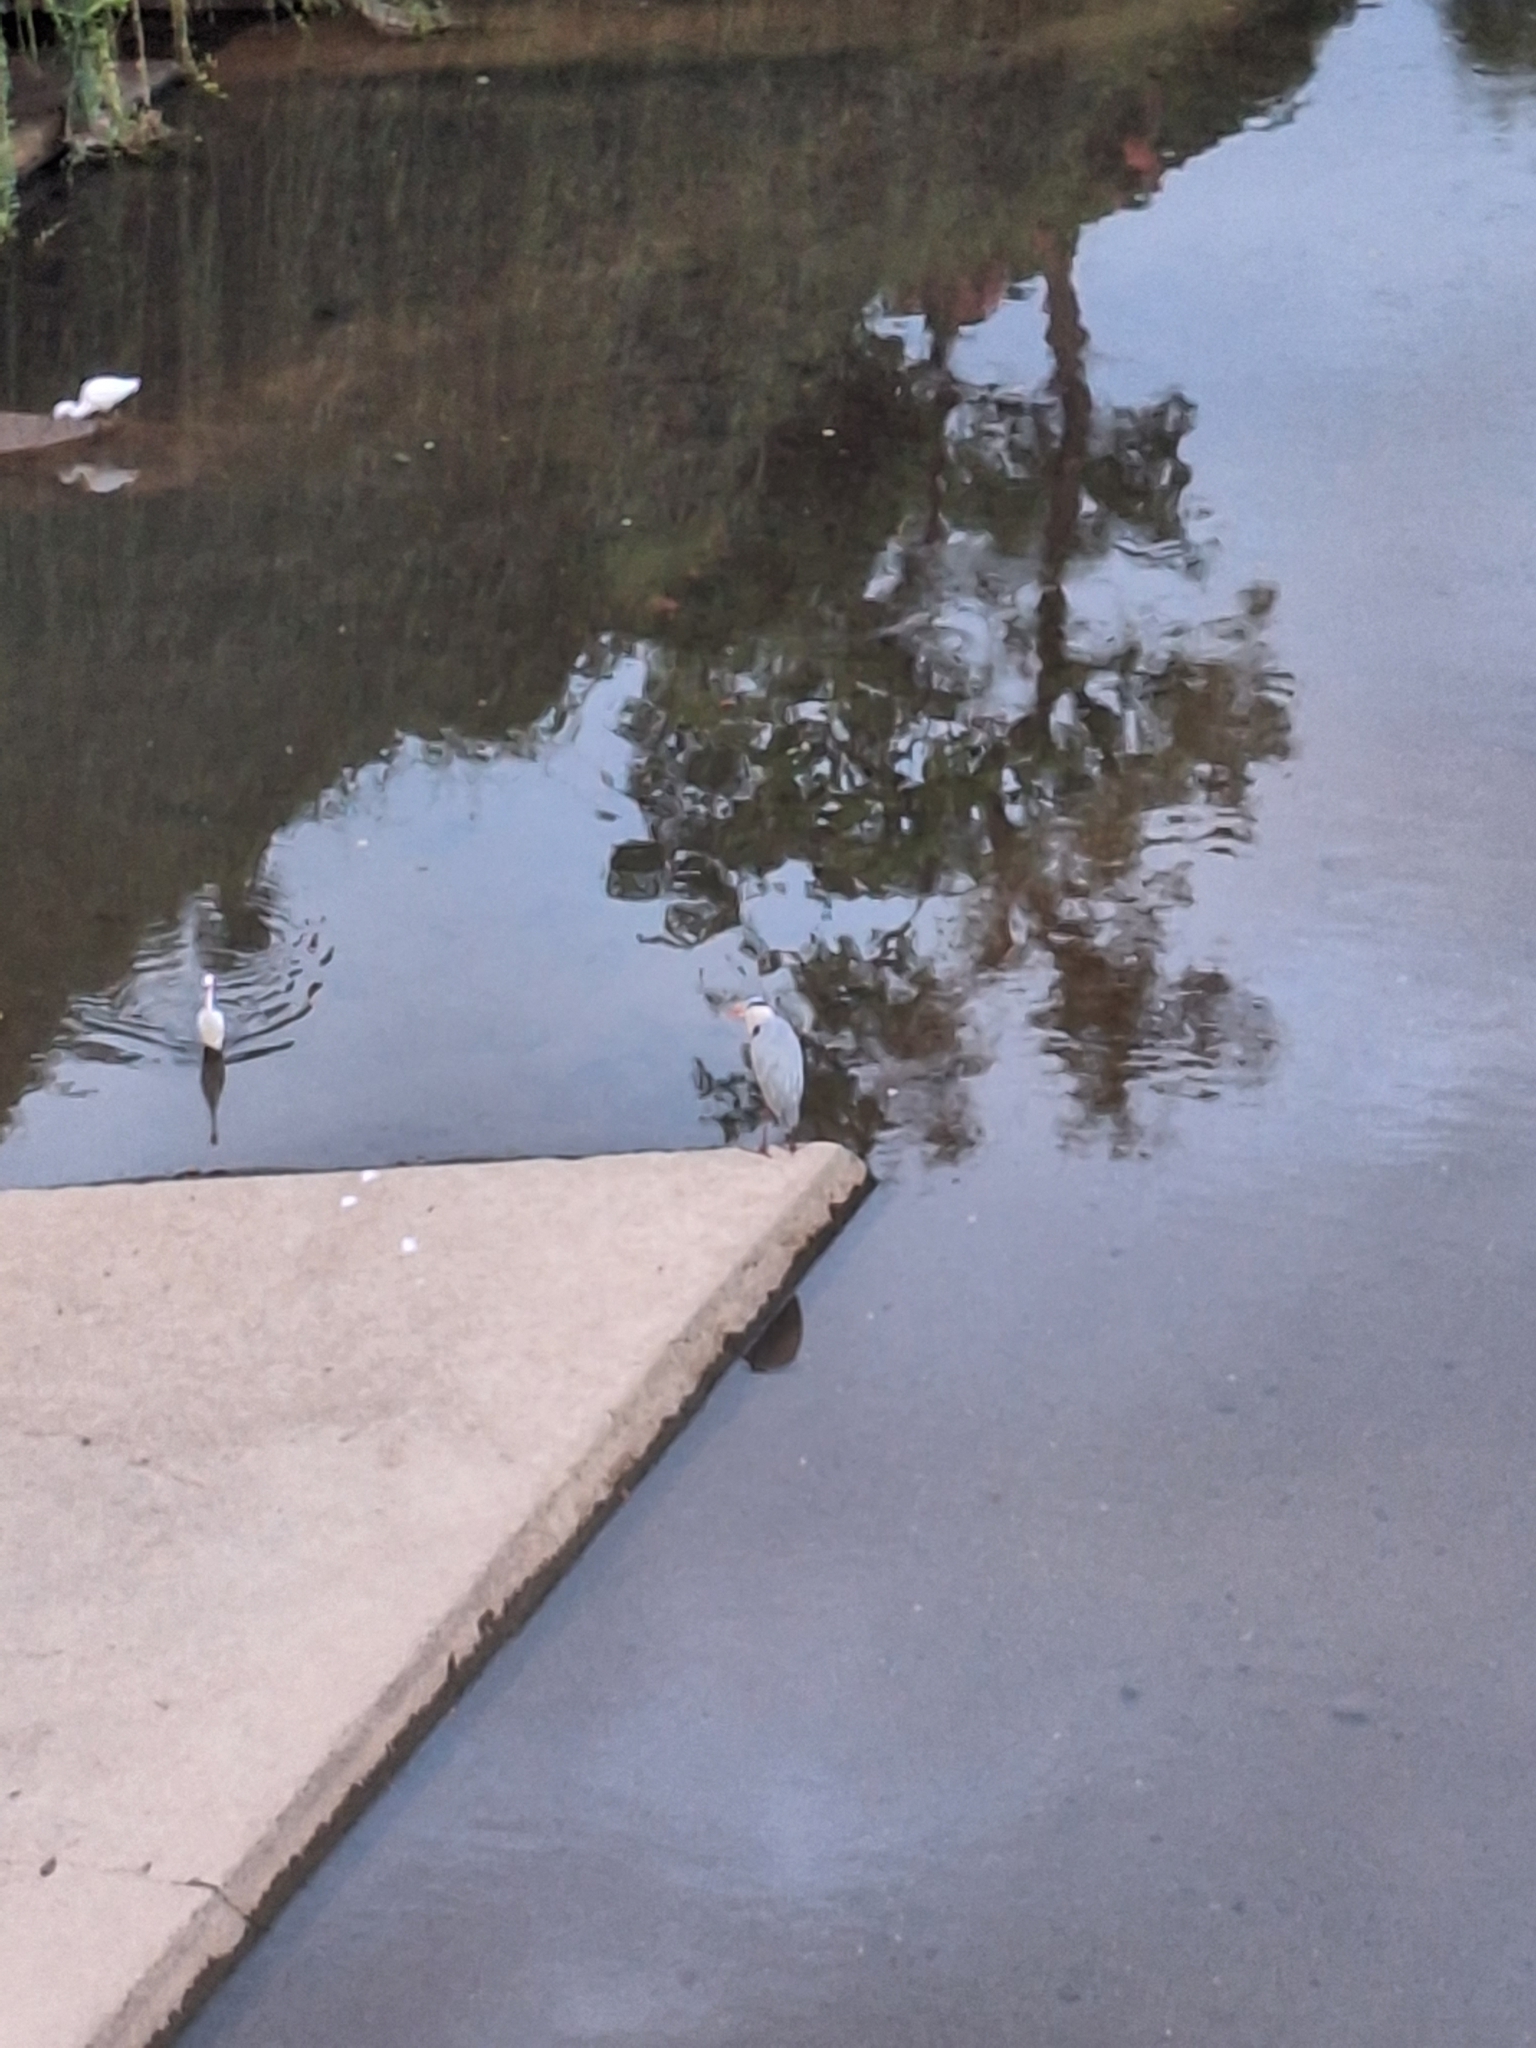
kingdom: Animalia
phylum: Chordata
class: Aves
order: Pelecaniformes
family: Ardeidae
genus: Ardea
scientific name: Ardea cinerea
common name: Grey heron
